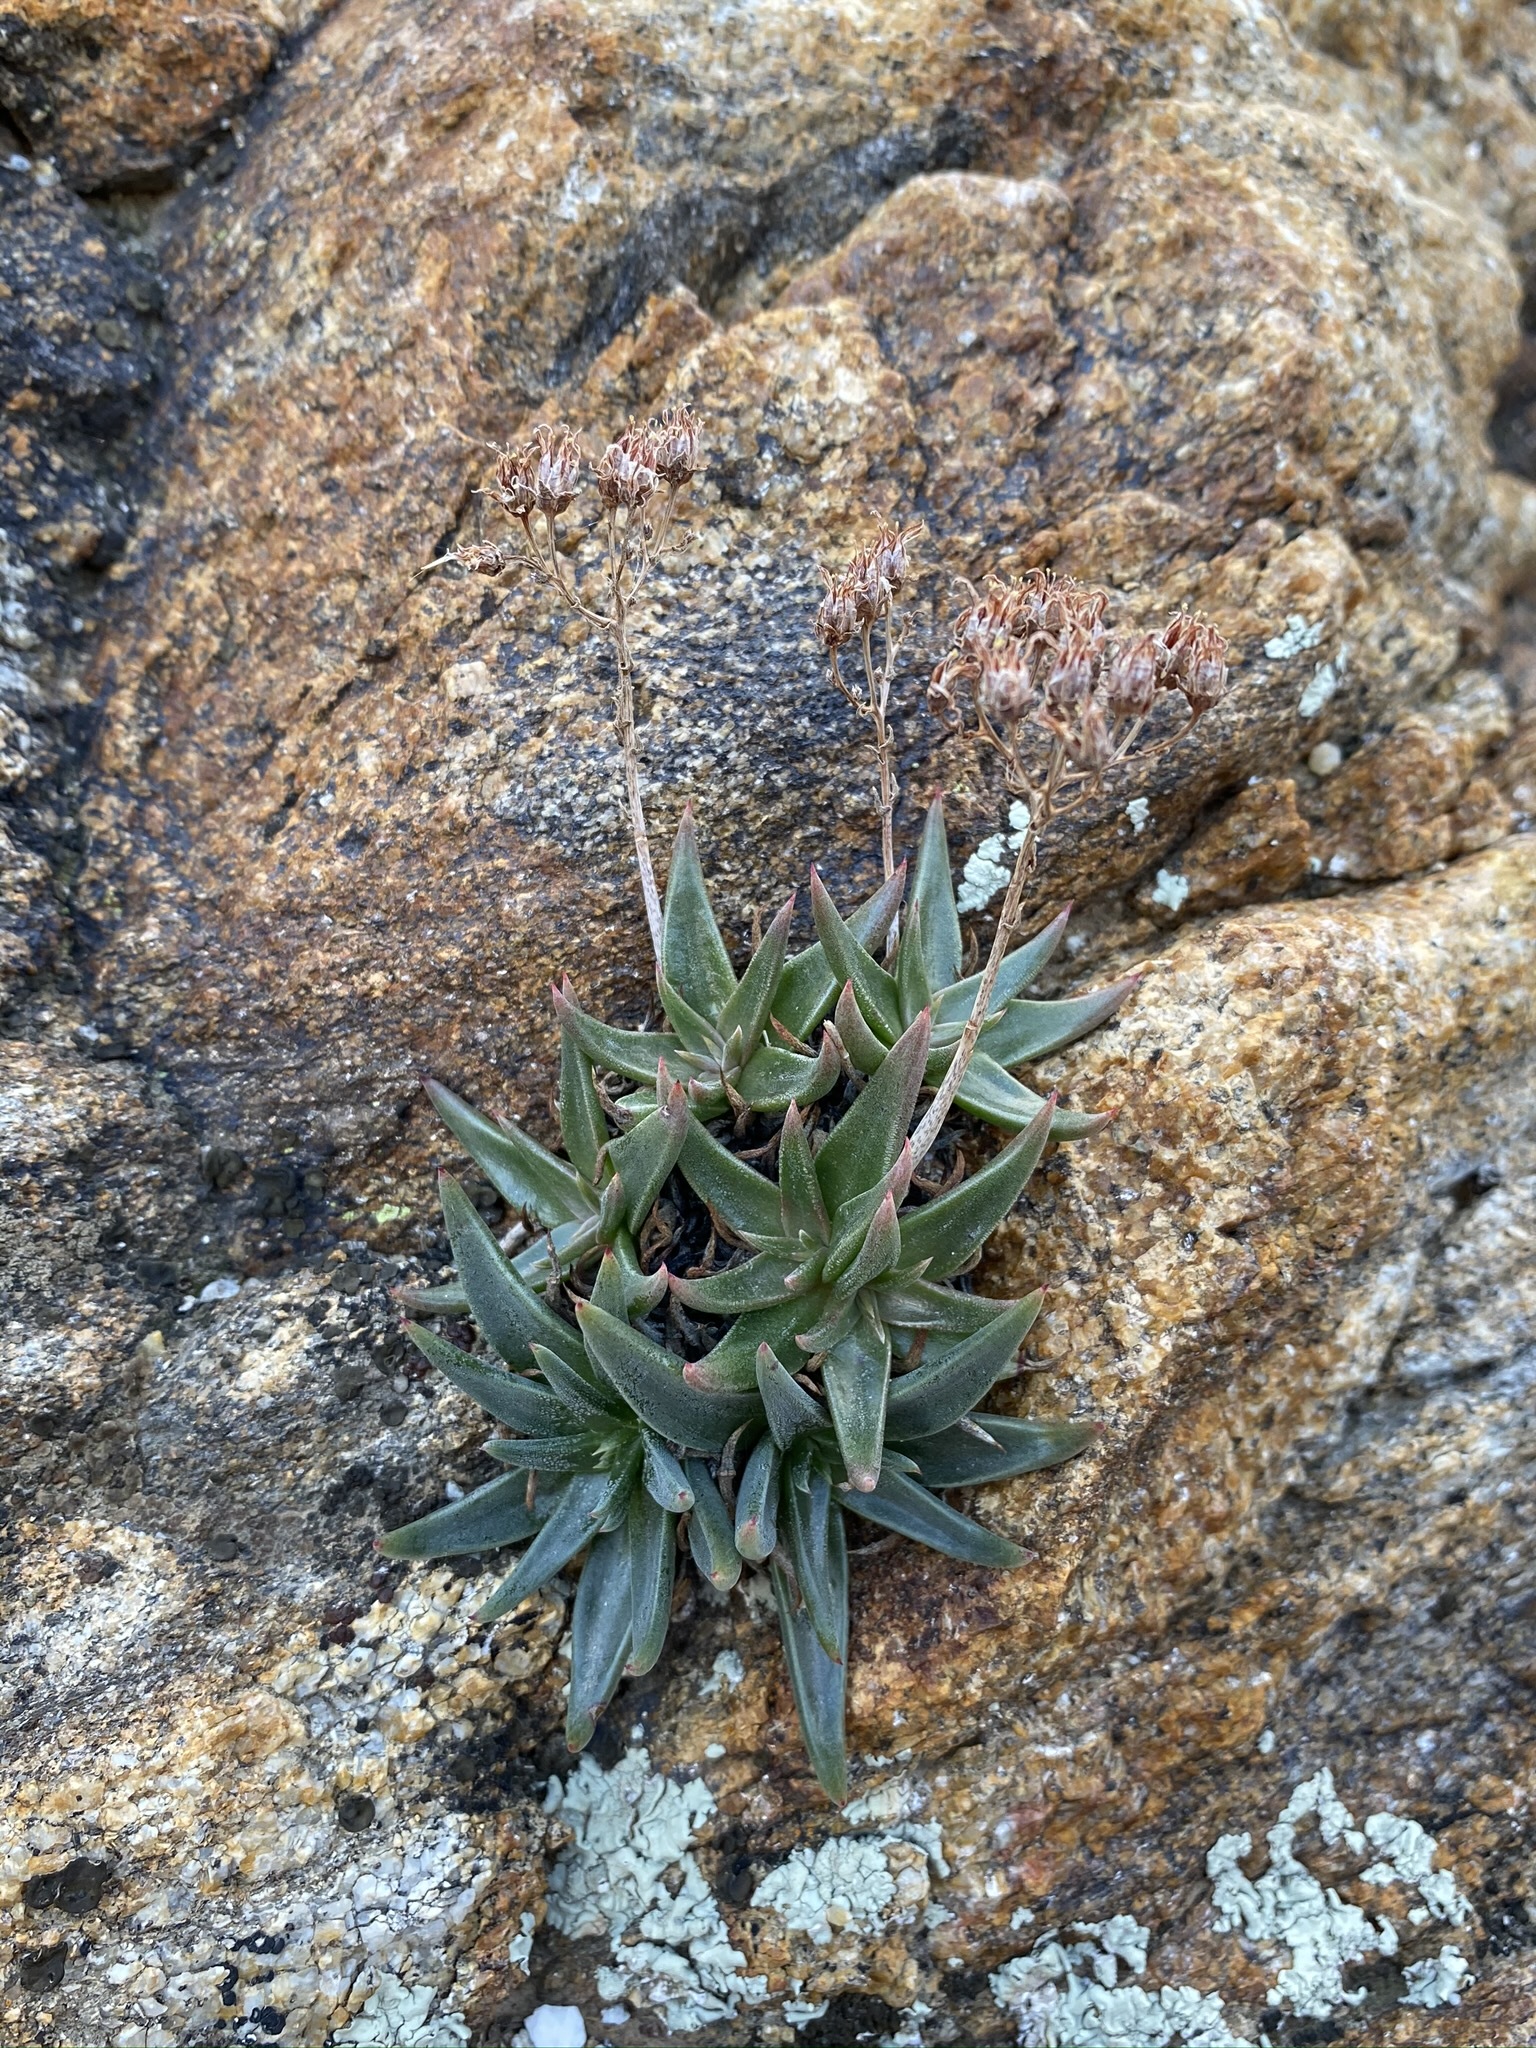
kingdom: Plantae
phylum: Tracheophyta
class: Magnoliopsida
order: Saxifragales
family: Crassulaceae
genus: Dudleya
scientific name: Dudleya saxosa
